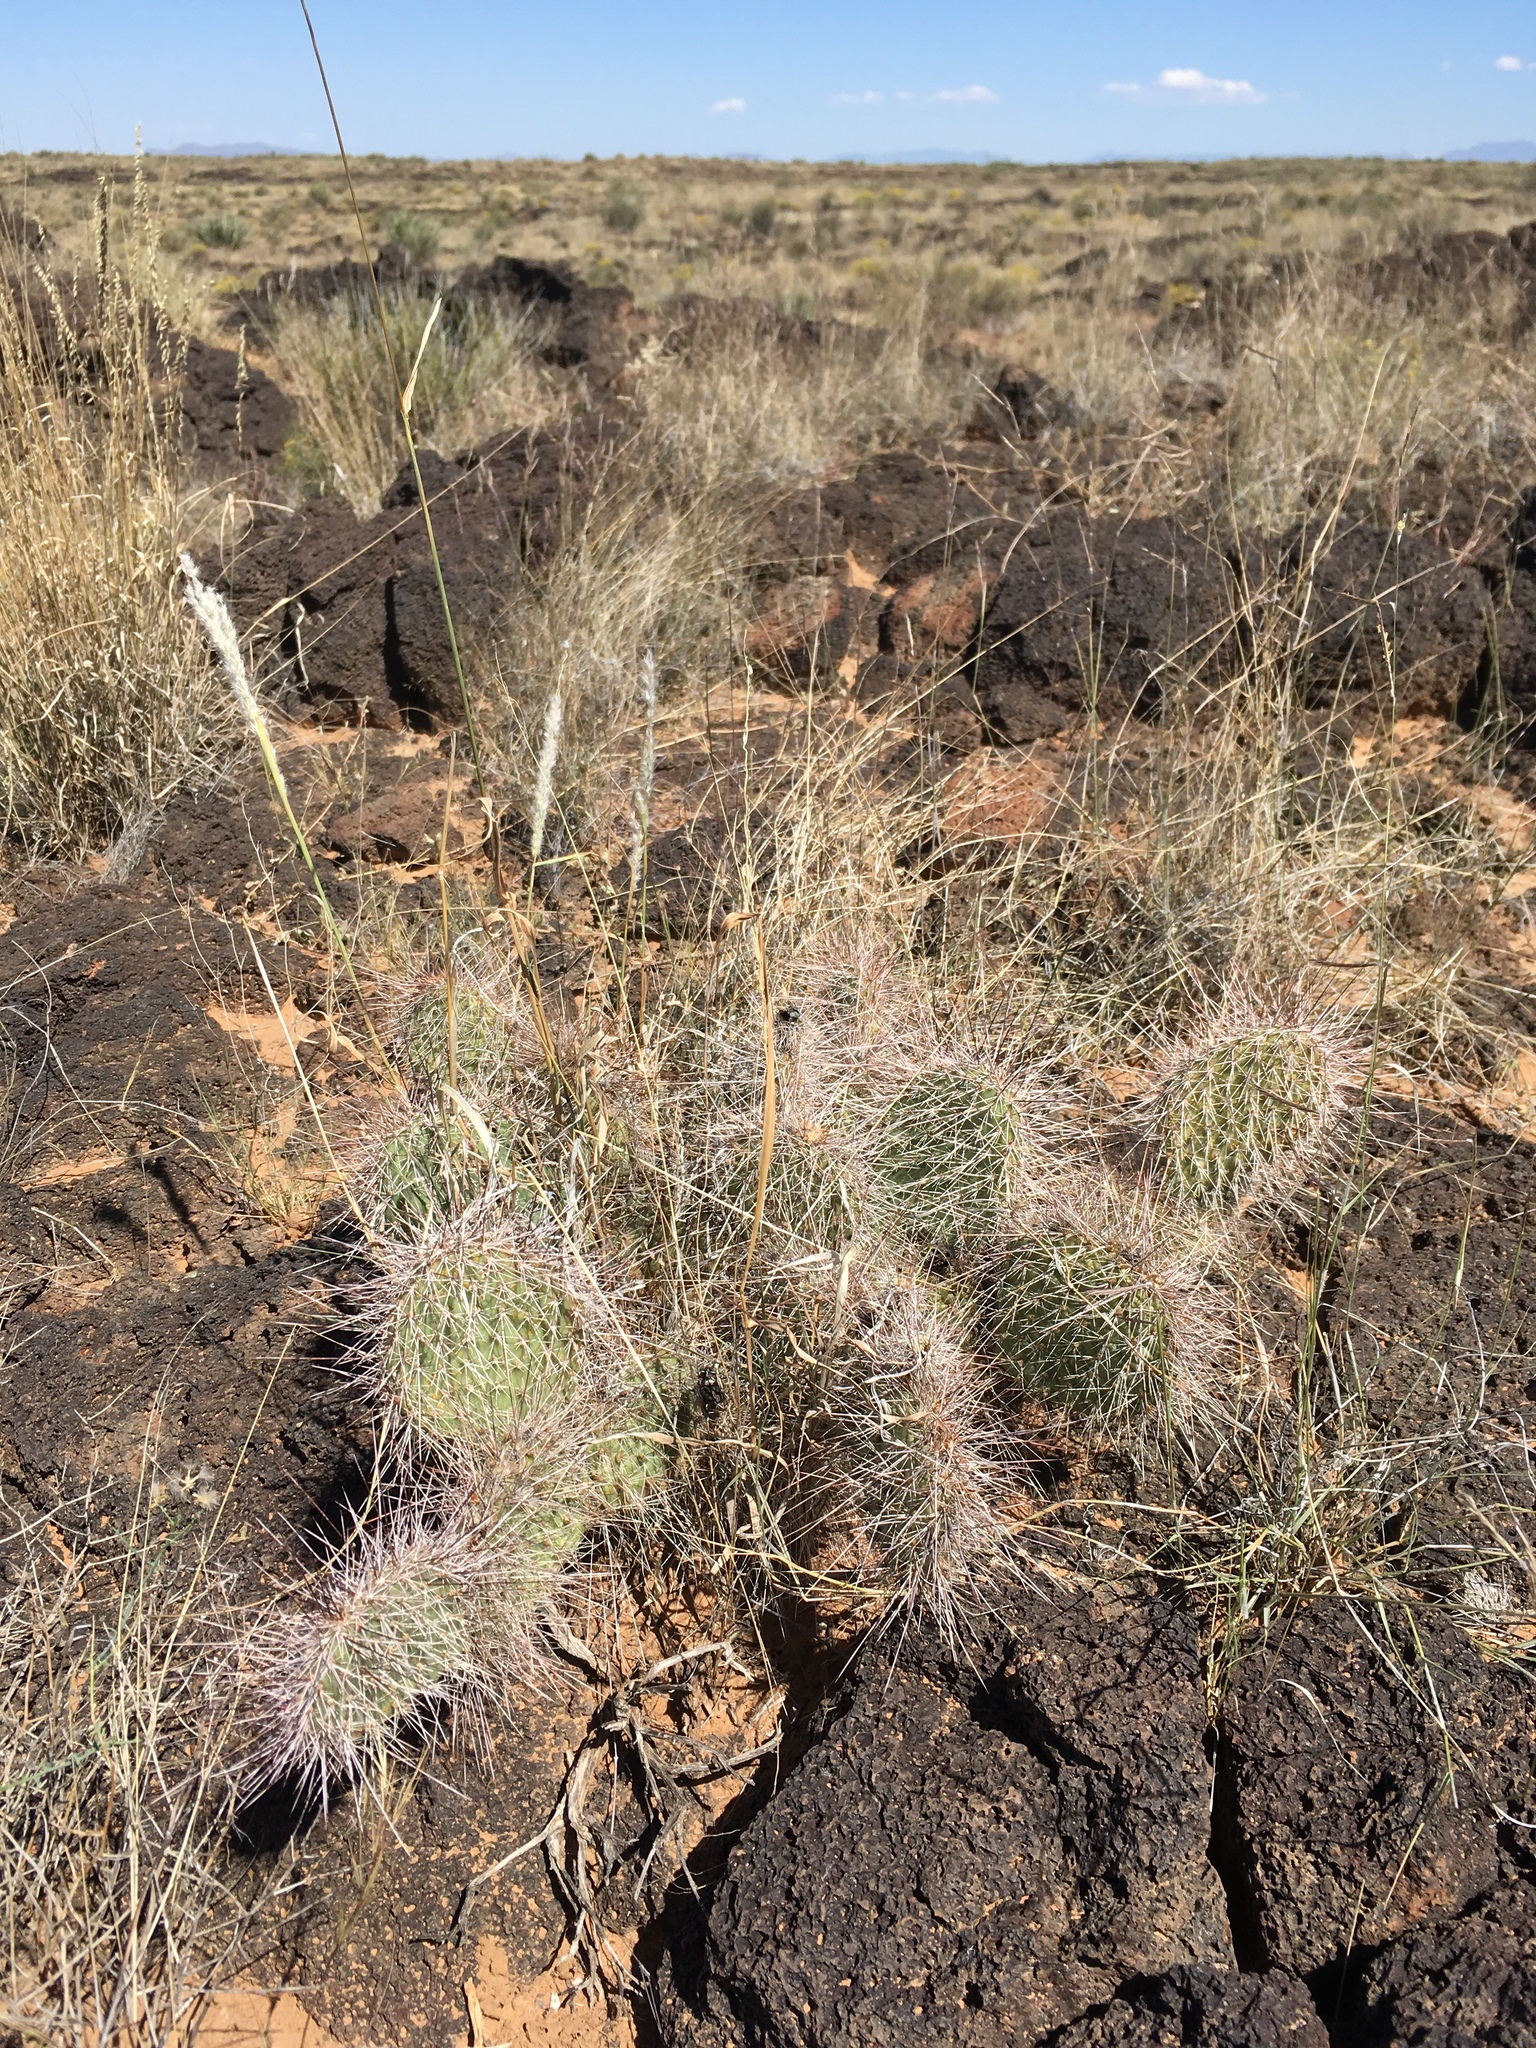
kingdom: Plantae
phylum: Tracheophyta
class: Magnoliopsida
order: Caryophyllales
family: Cactaceae
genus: Opuntia
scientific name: Opuntia polyacantha
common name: Plains prickly-pear
